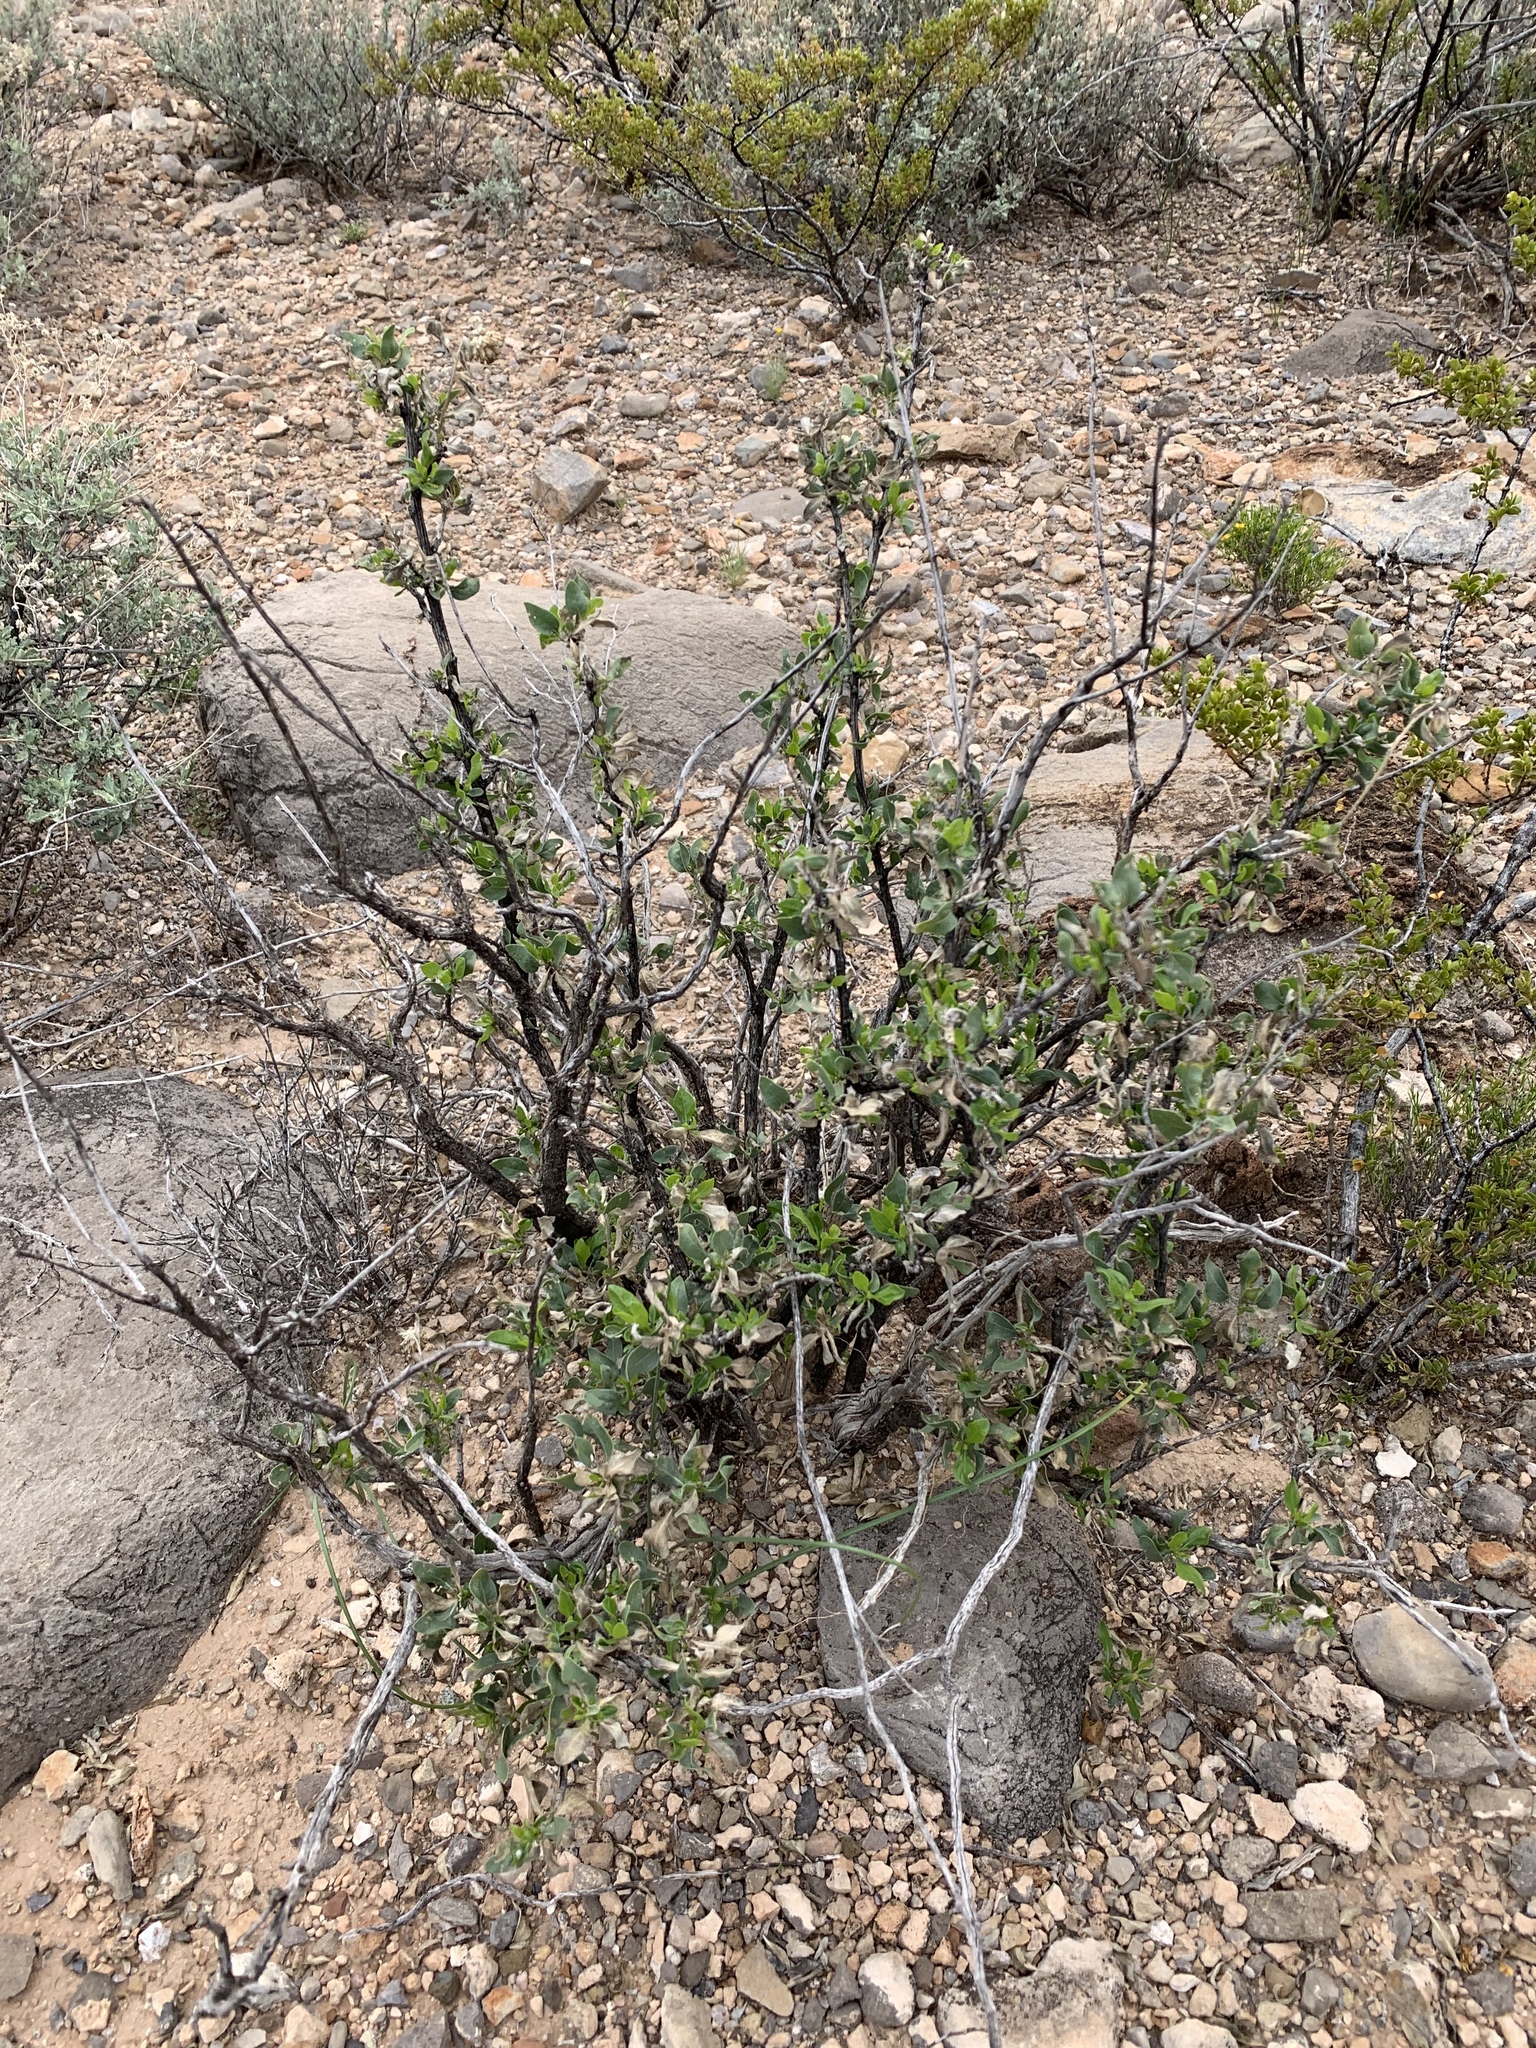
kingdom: Plantae
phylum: Tracheophyta
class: Magnoliopsida
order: Asterales
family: Asteraceae
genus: Flourensia
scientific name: Flourensia cernua
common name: Varnishbush
